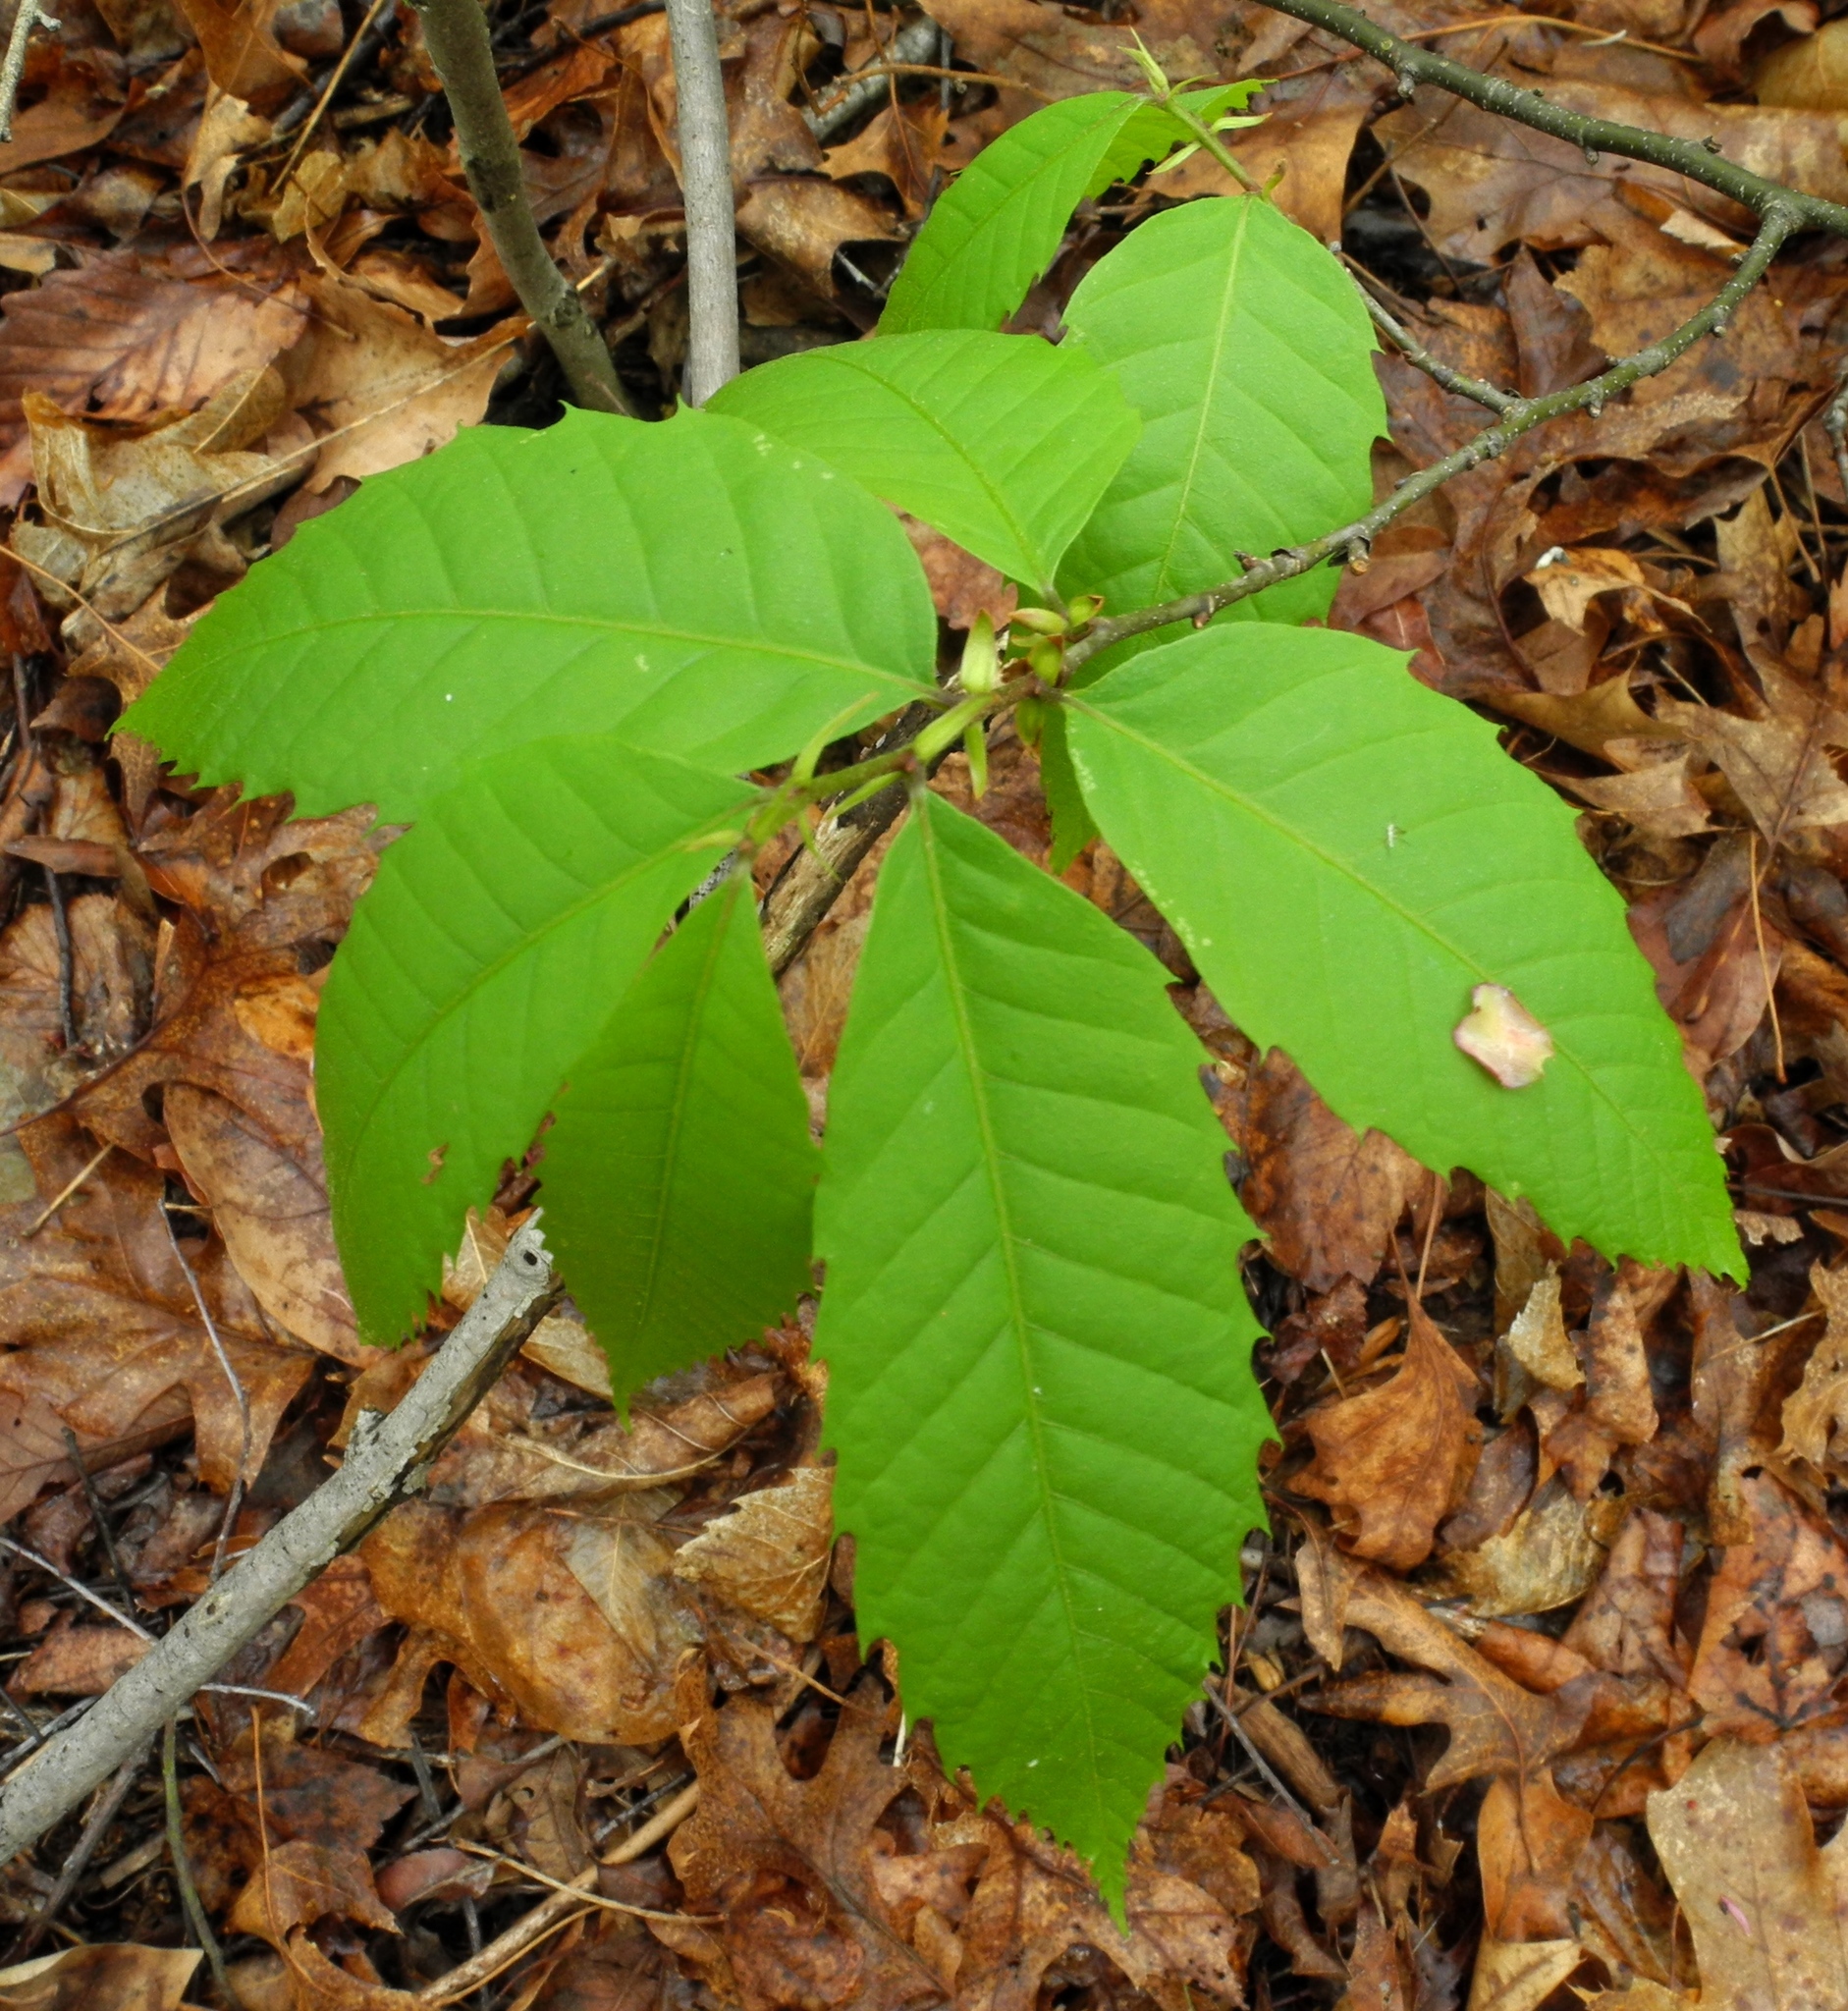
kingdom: Plantae
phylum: Tracheophyta
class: Magnoliopsida
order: Fagales
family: Fagaceae
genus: Castanea
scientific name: Castanea dentata
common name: American chestnut
